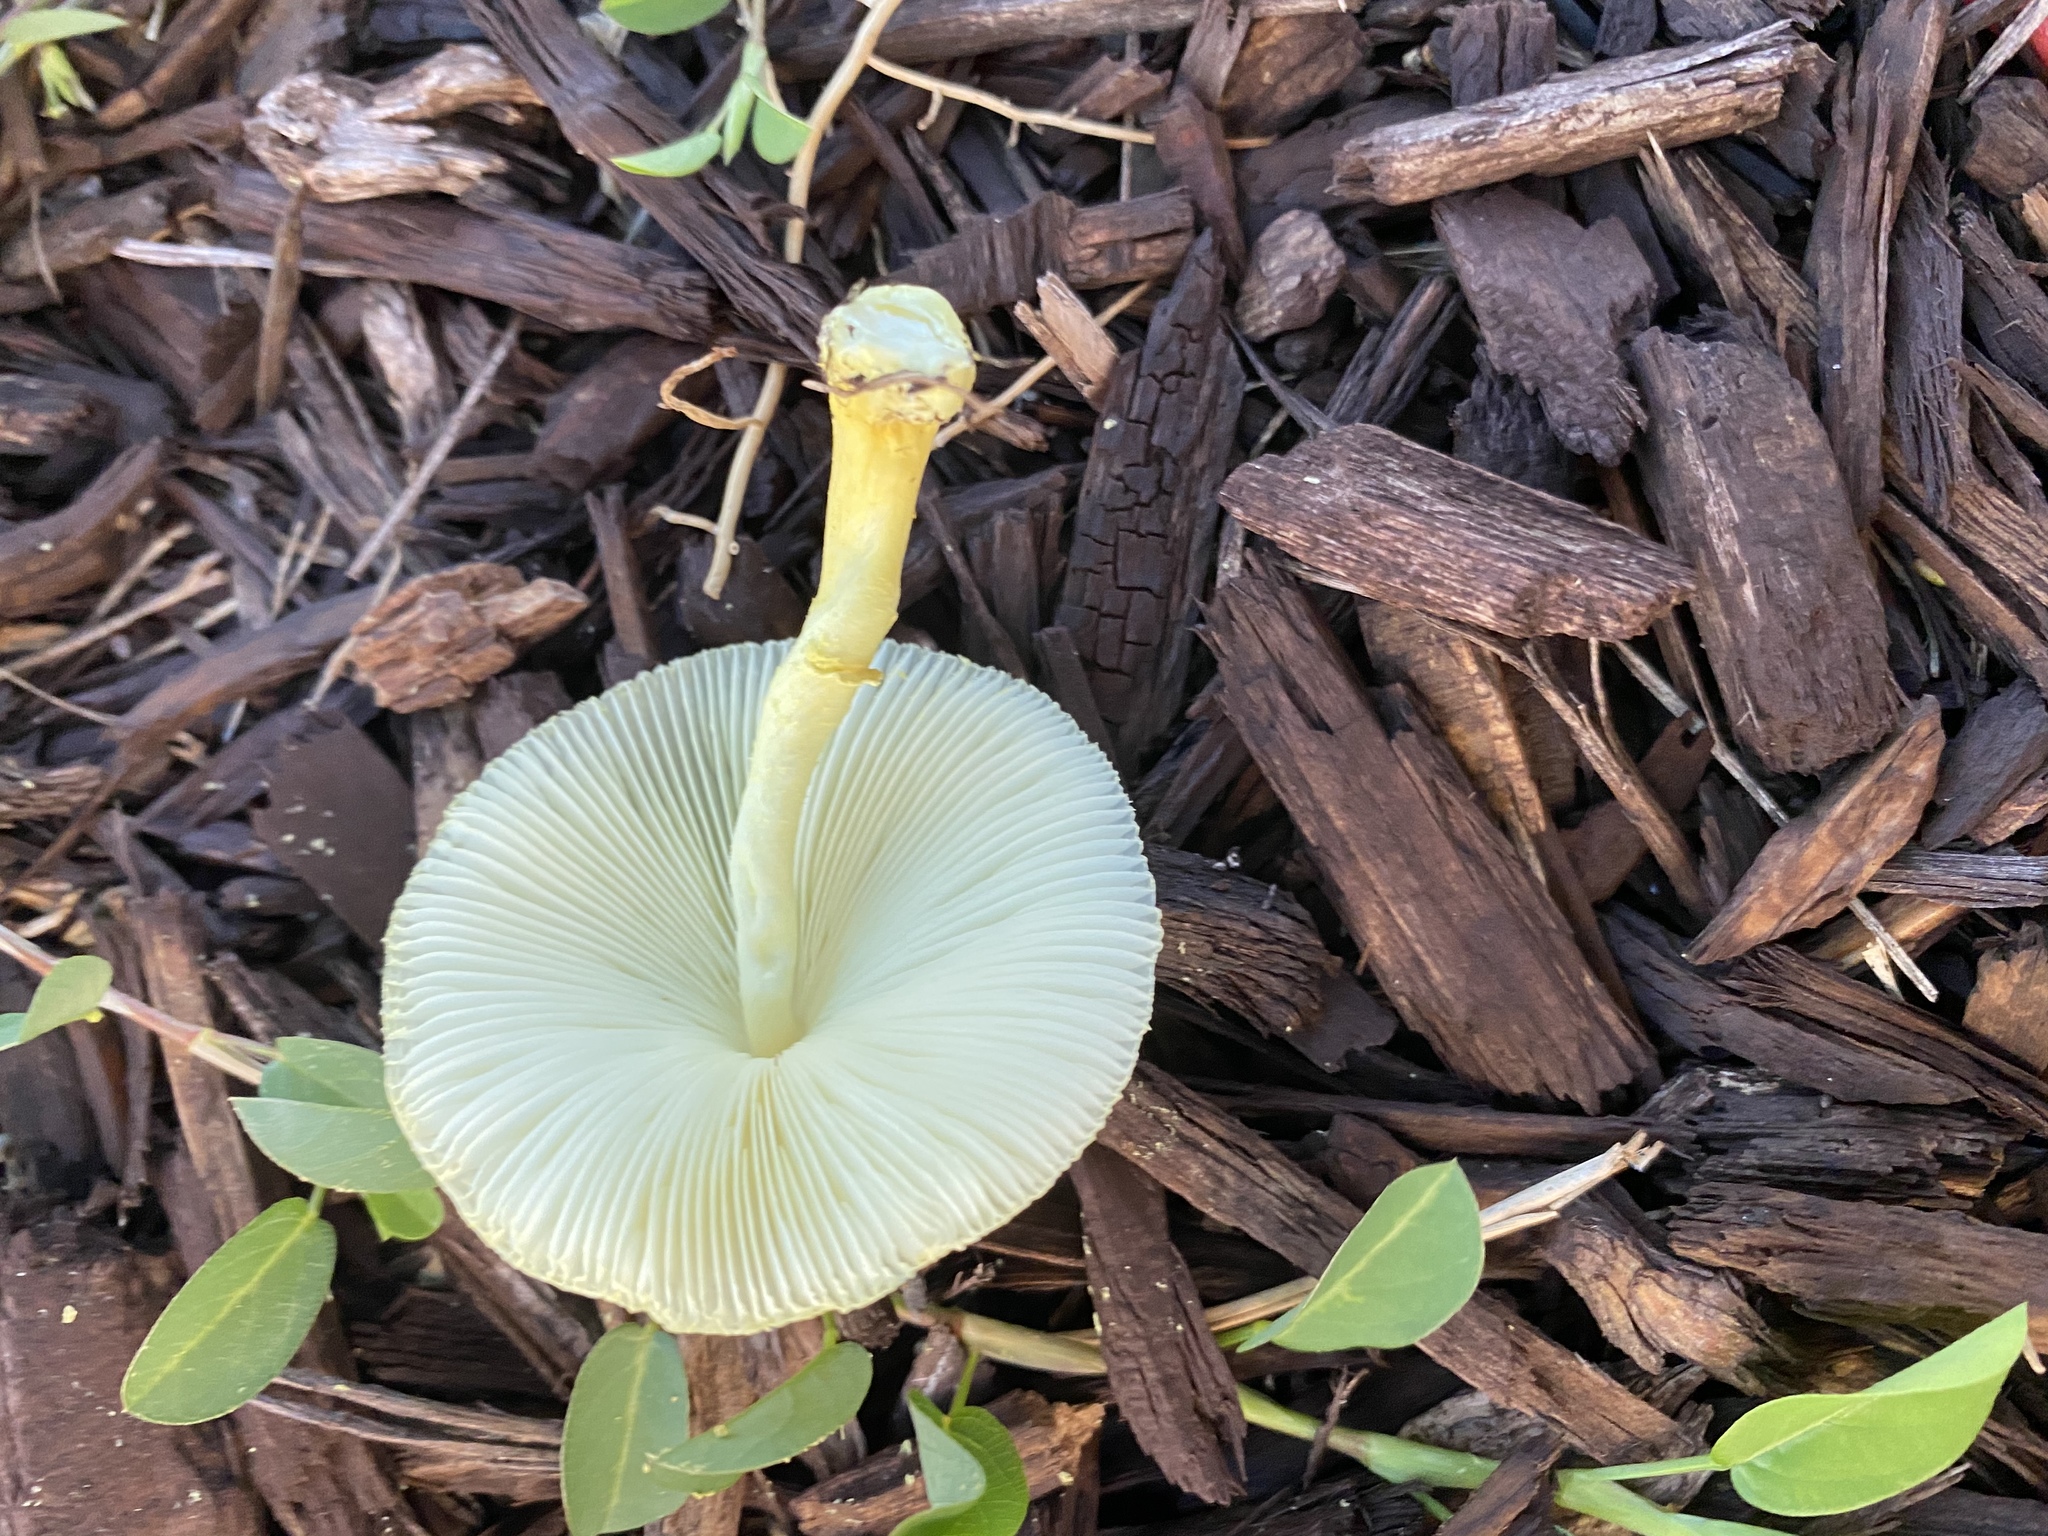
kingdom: Fungi
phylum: Basidiomycota
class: Agaricomycetes
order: Agaricales
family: Agaricaceae
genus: Leucocoprinus
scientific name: Leucocoprinus birnbaumii
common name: Plantpot dapperling
